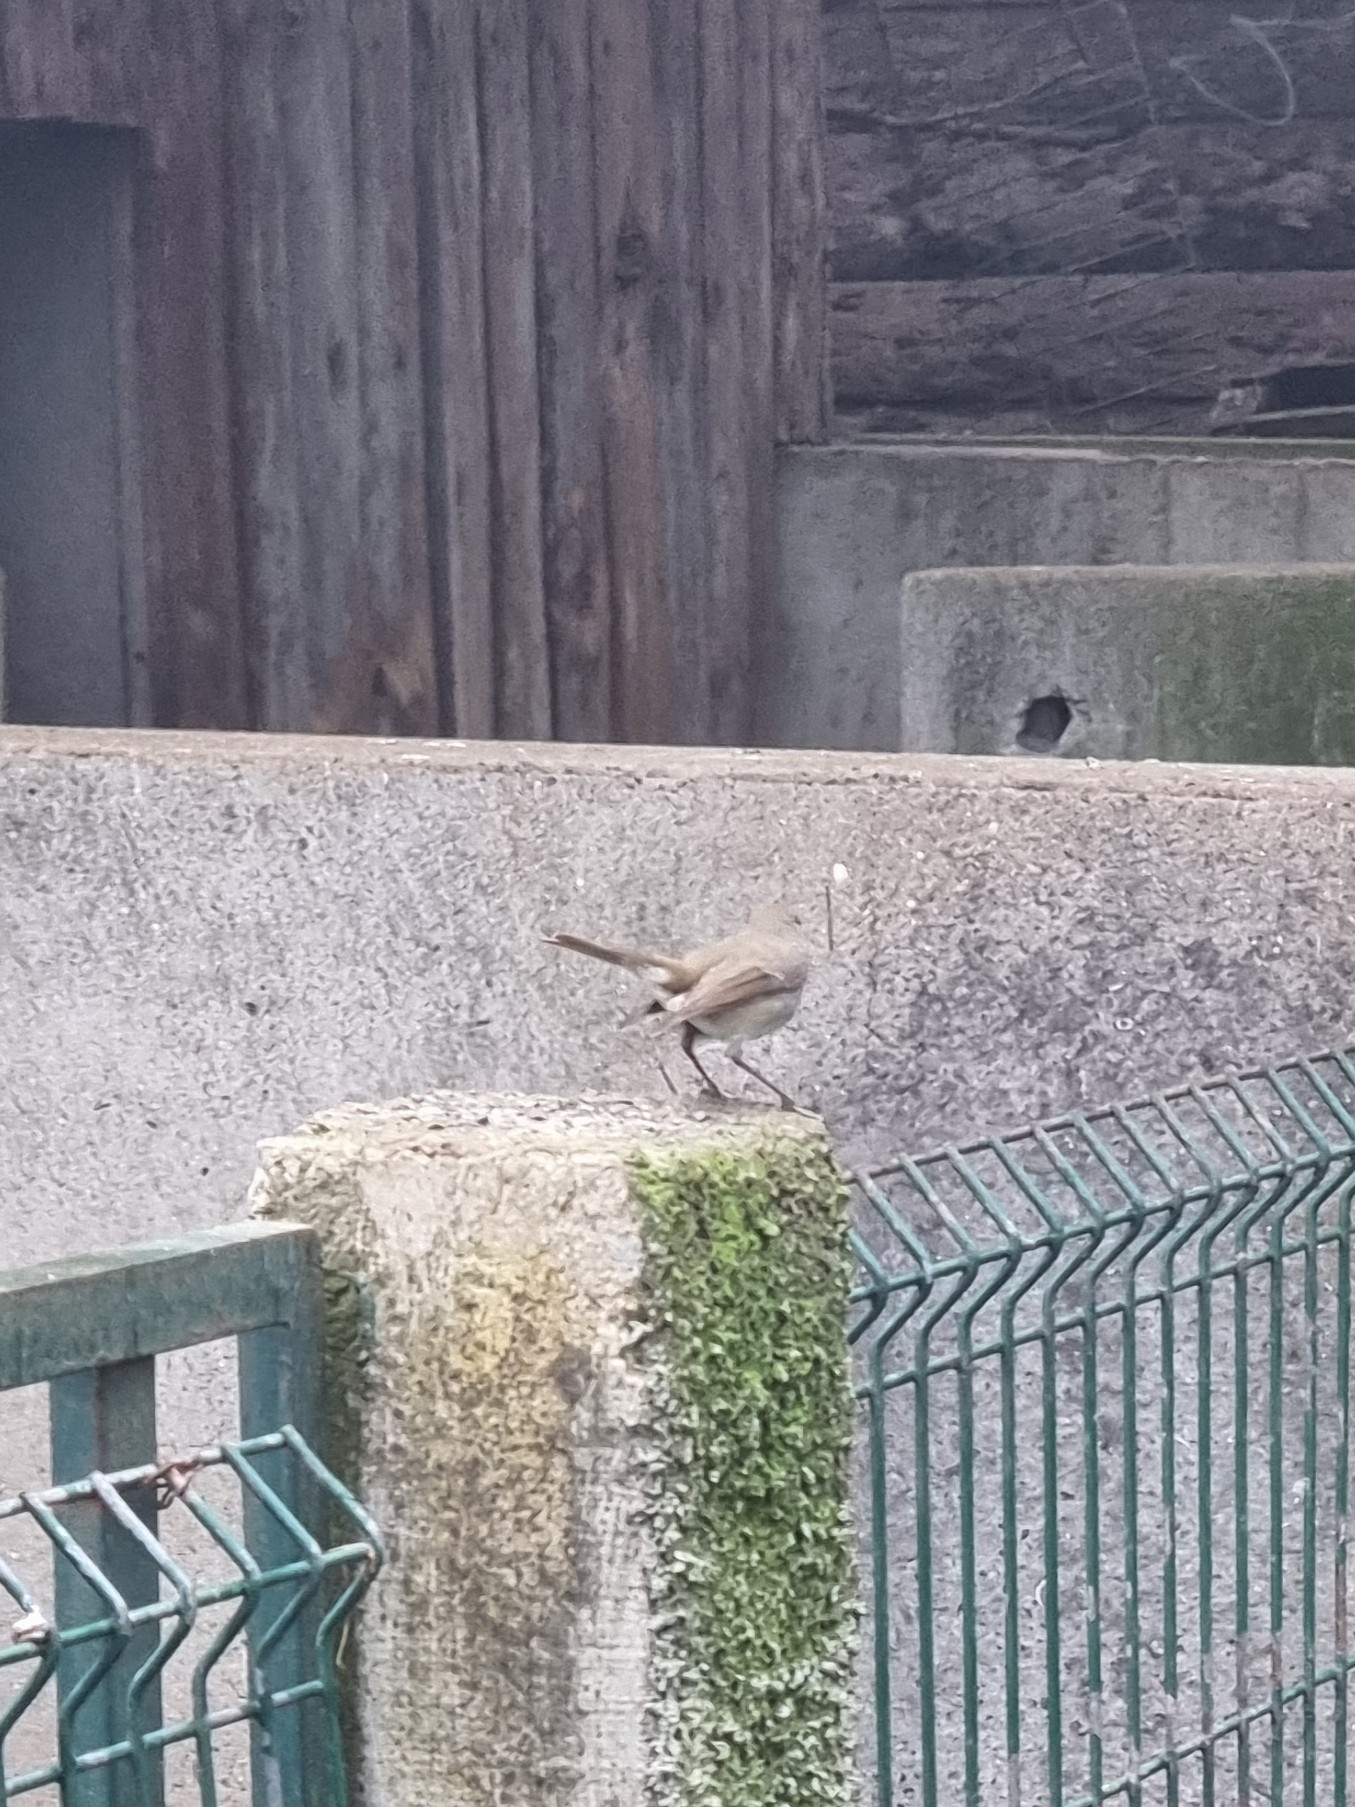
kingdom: Animalia
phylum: Chordata
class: Aves
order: Passeriformes
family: Muscicapidae
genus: Erithacus
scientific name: Erithacus rubecula
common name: European robin
